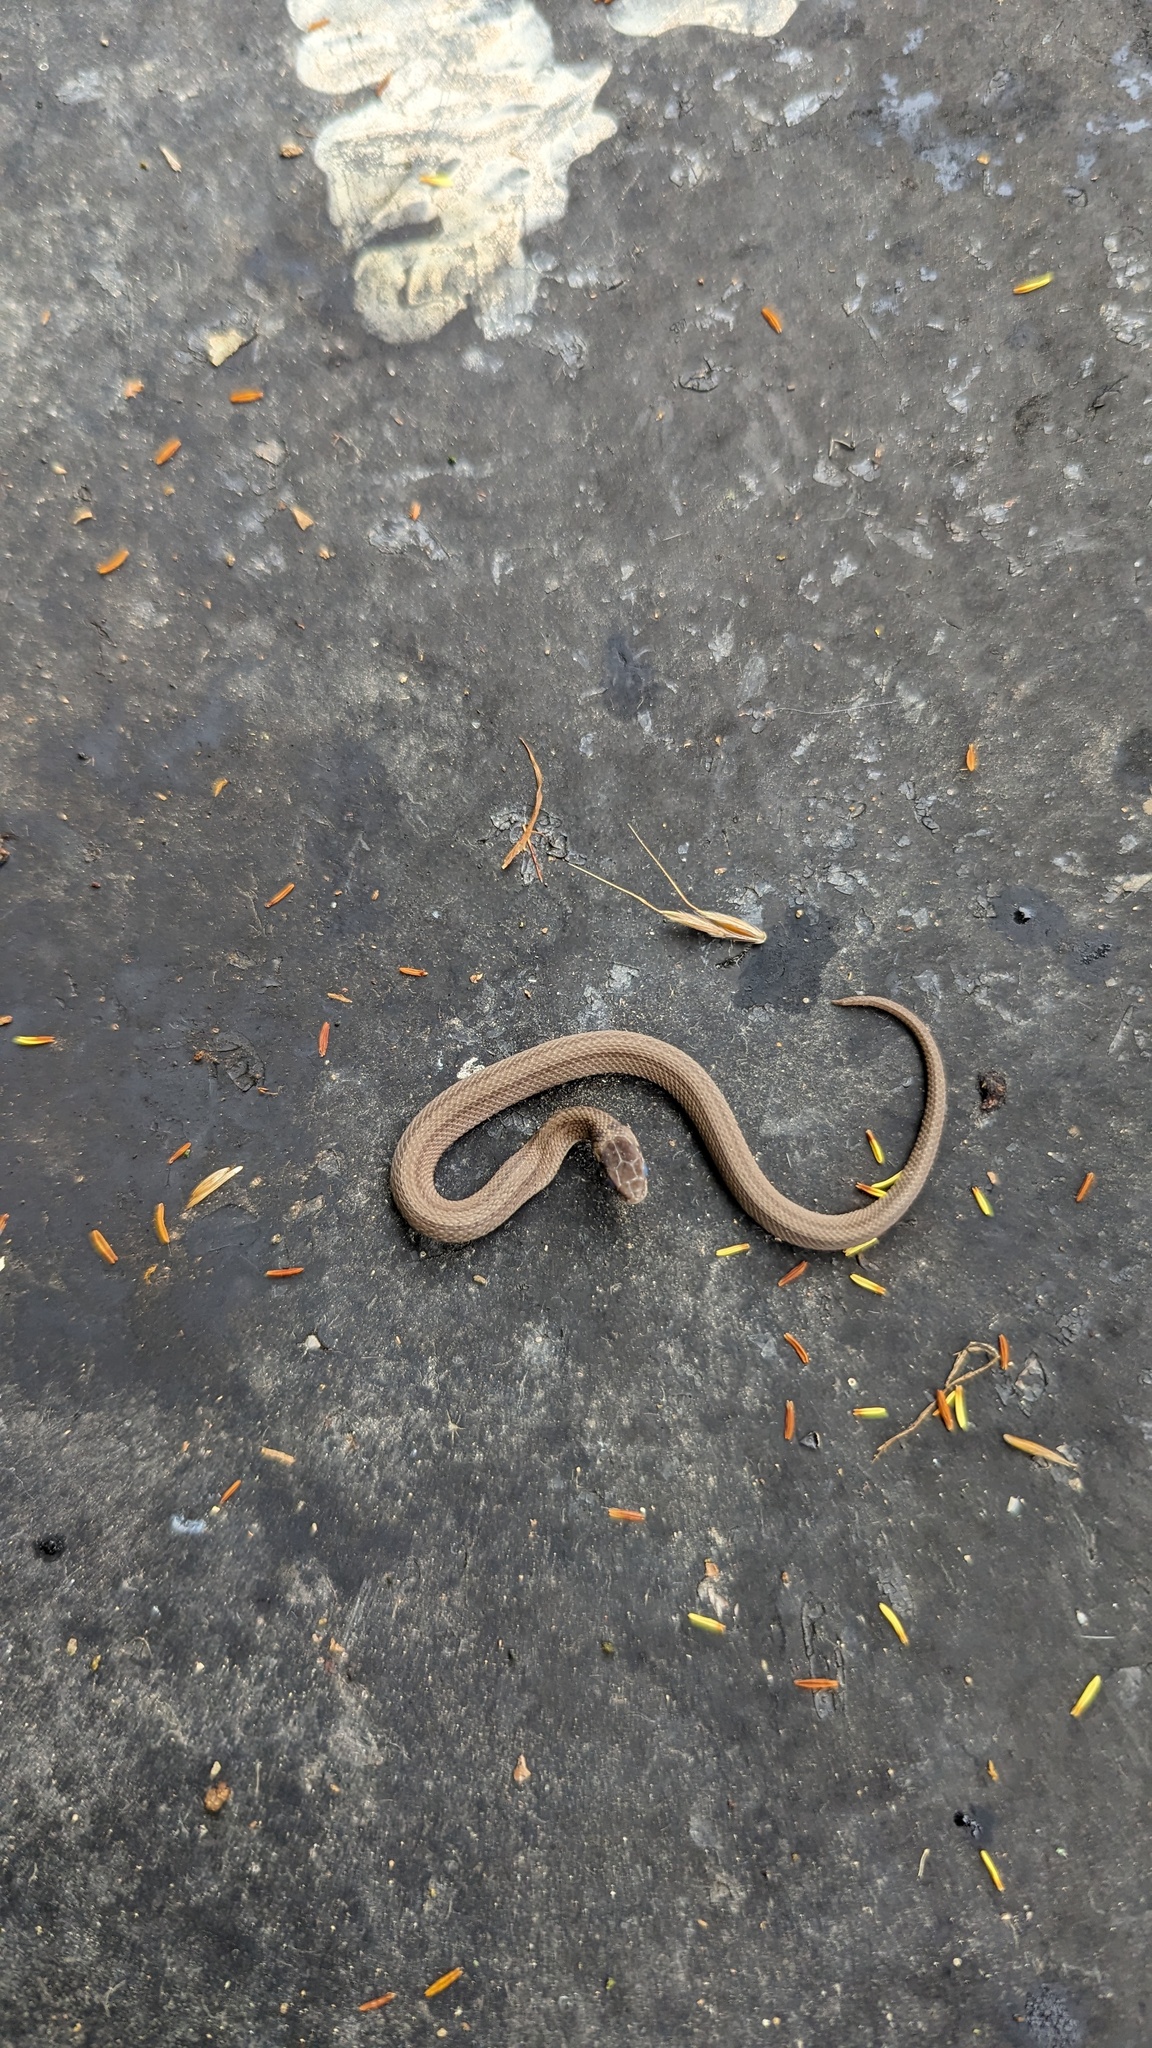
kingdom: Animalia
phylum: Chordata
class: Squamata
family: Colubridae
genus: Storeria
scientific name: Storeria dekayi
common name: (dekay’s) brown snake
